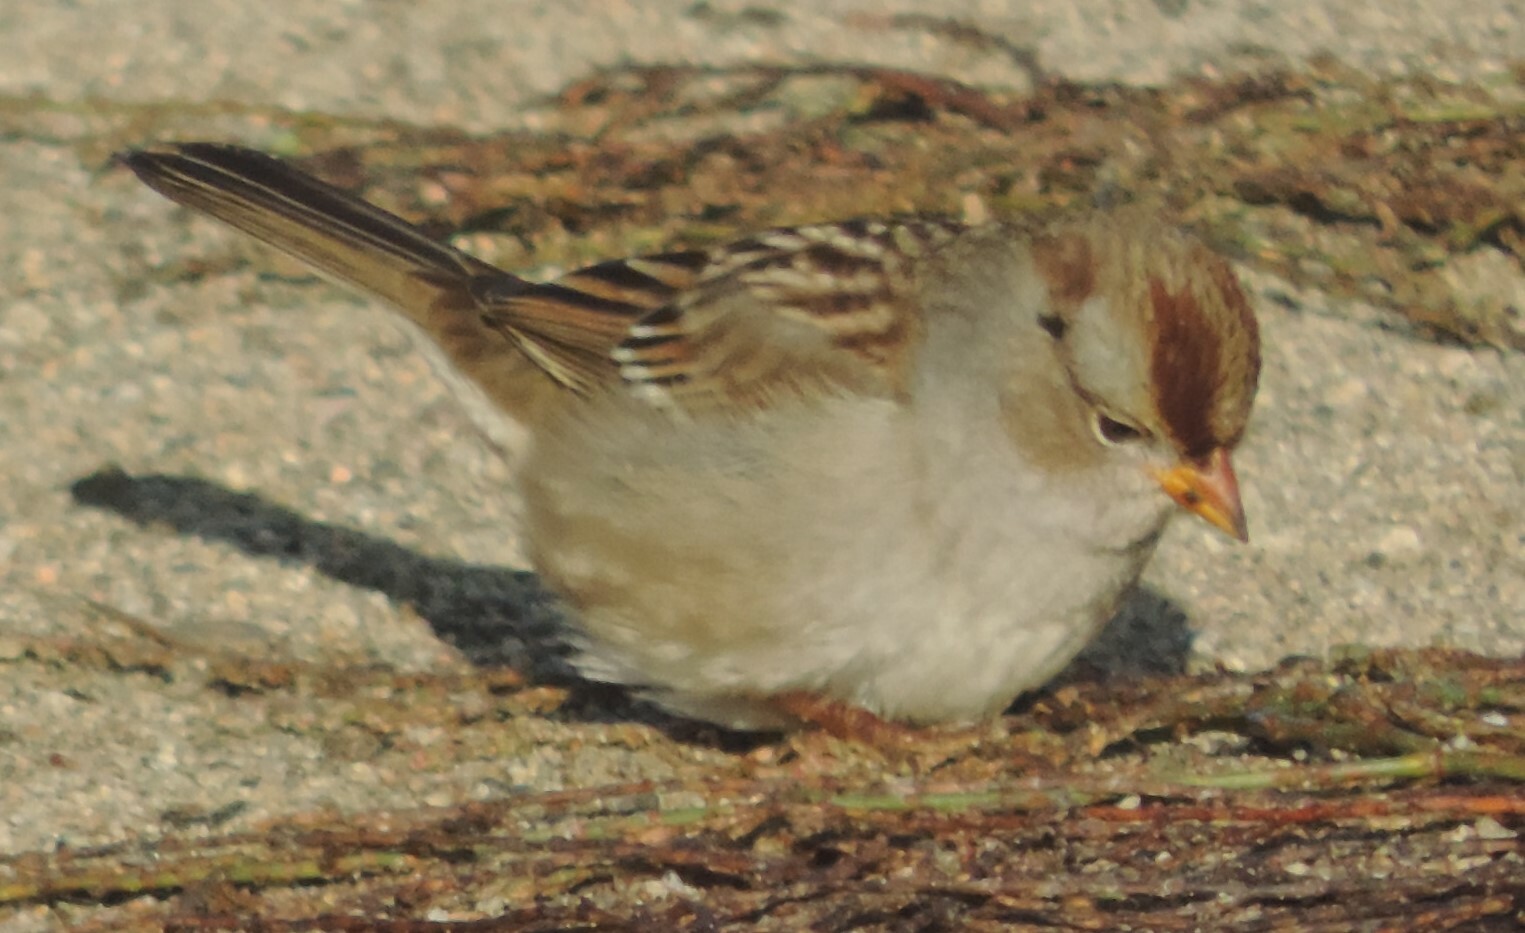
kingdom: Animalia
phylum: Chordata
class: Aves
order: Passeriformes
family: Passerellidae
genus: Zonotrichia
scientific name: Zonotrichia leucophrys
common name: White-crowned sparrow
